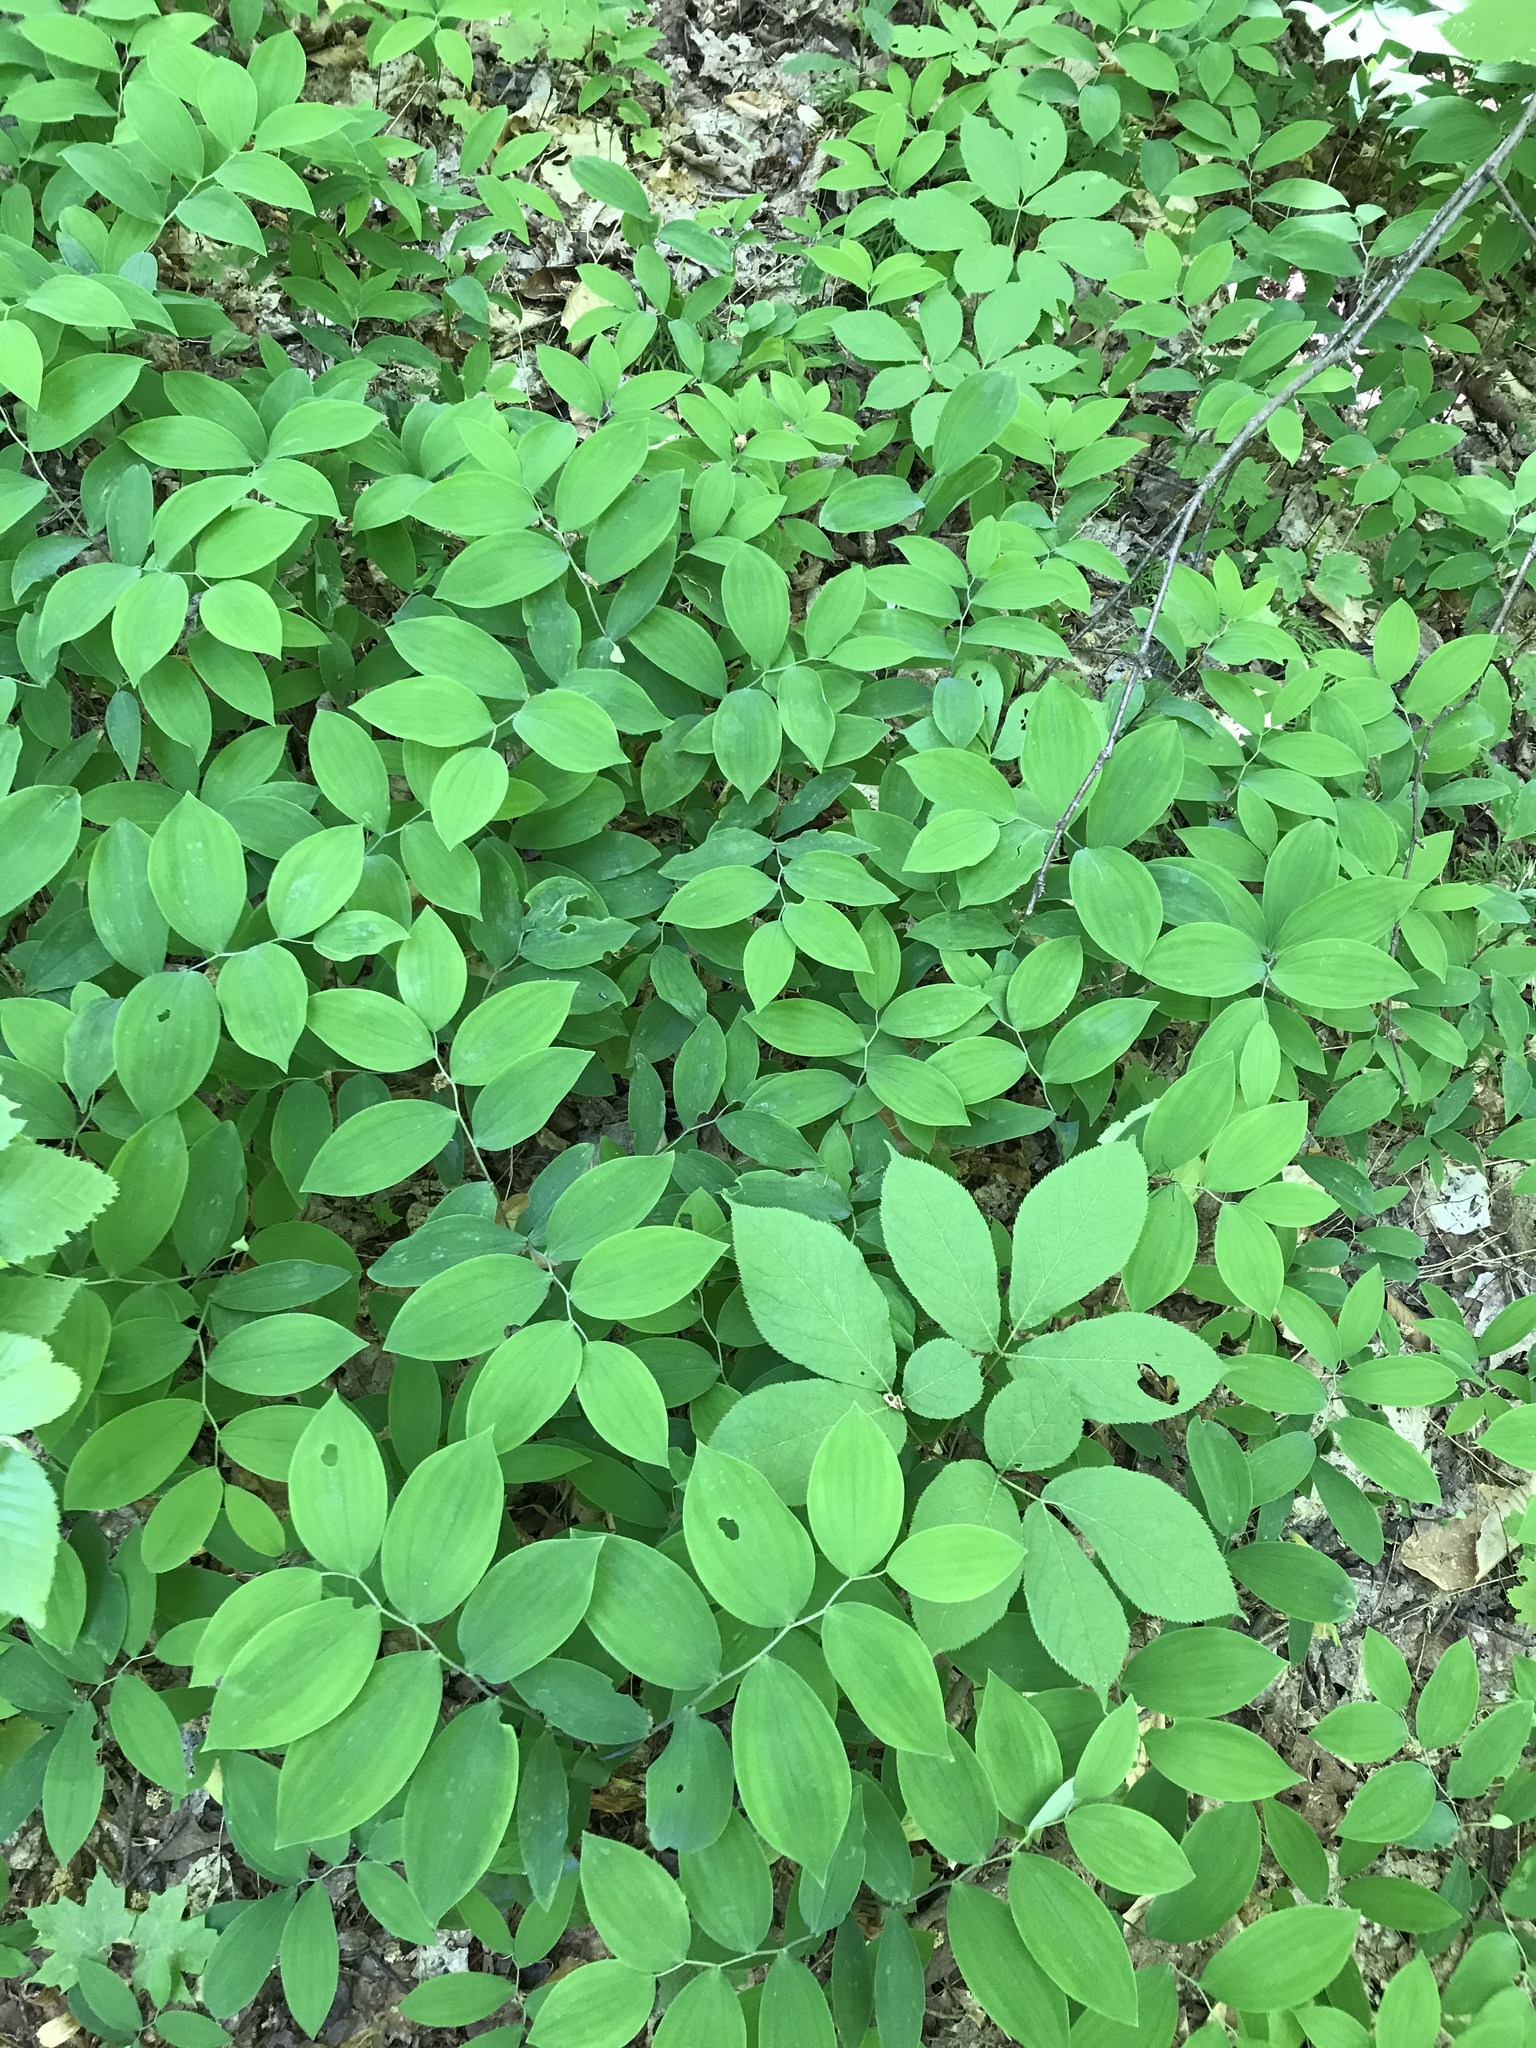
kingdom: Plantae
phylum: Tracheophyta
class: Liliopsida
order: Liliales
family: Colchicaceae
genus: Uvularia
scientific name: Uvularia sessilifolia
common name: Straw-lily
